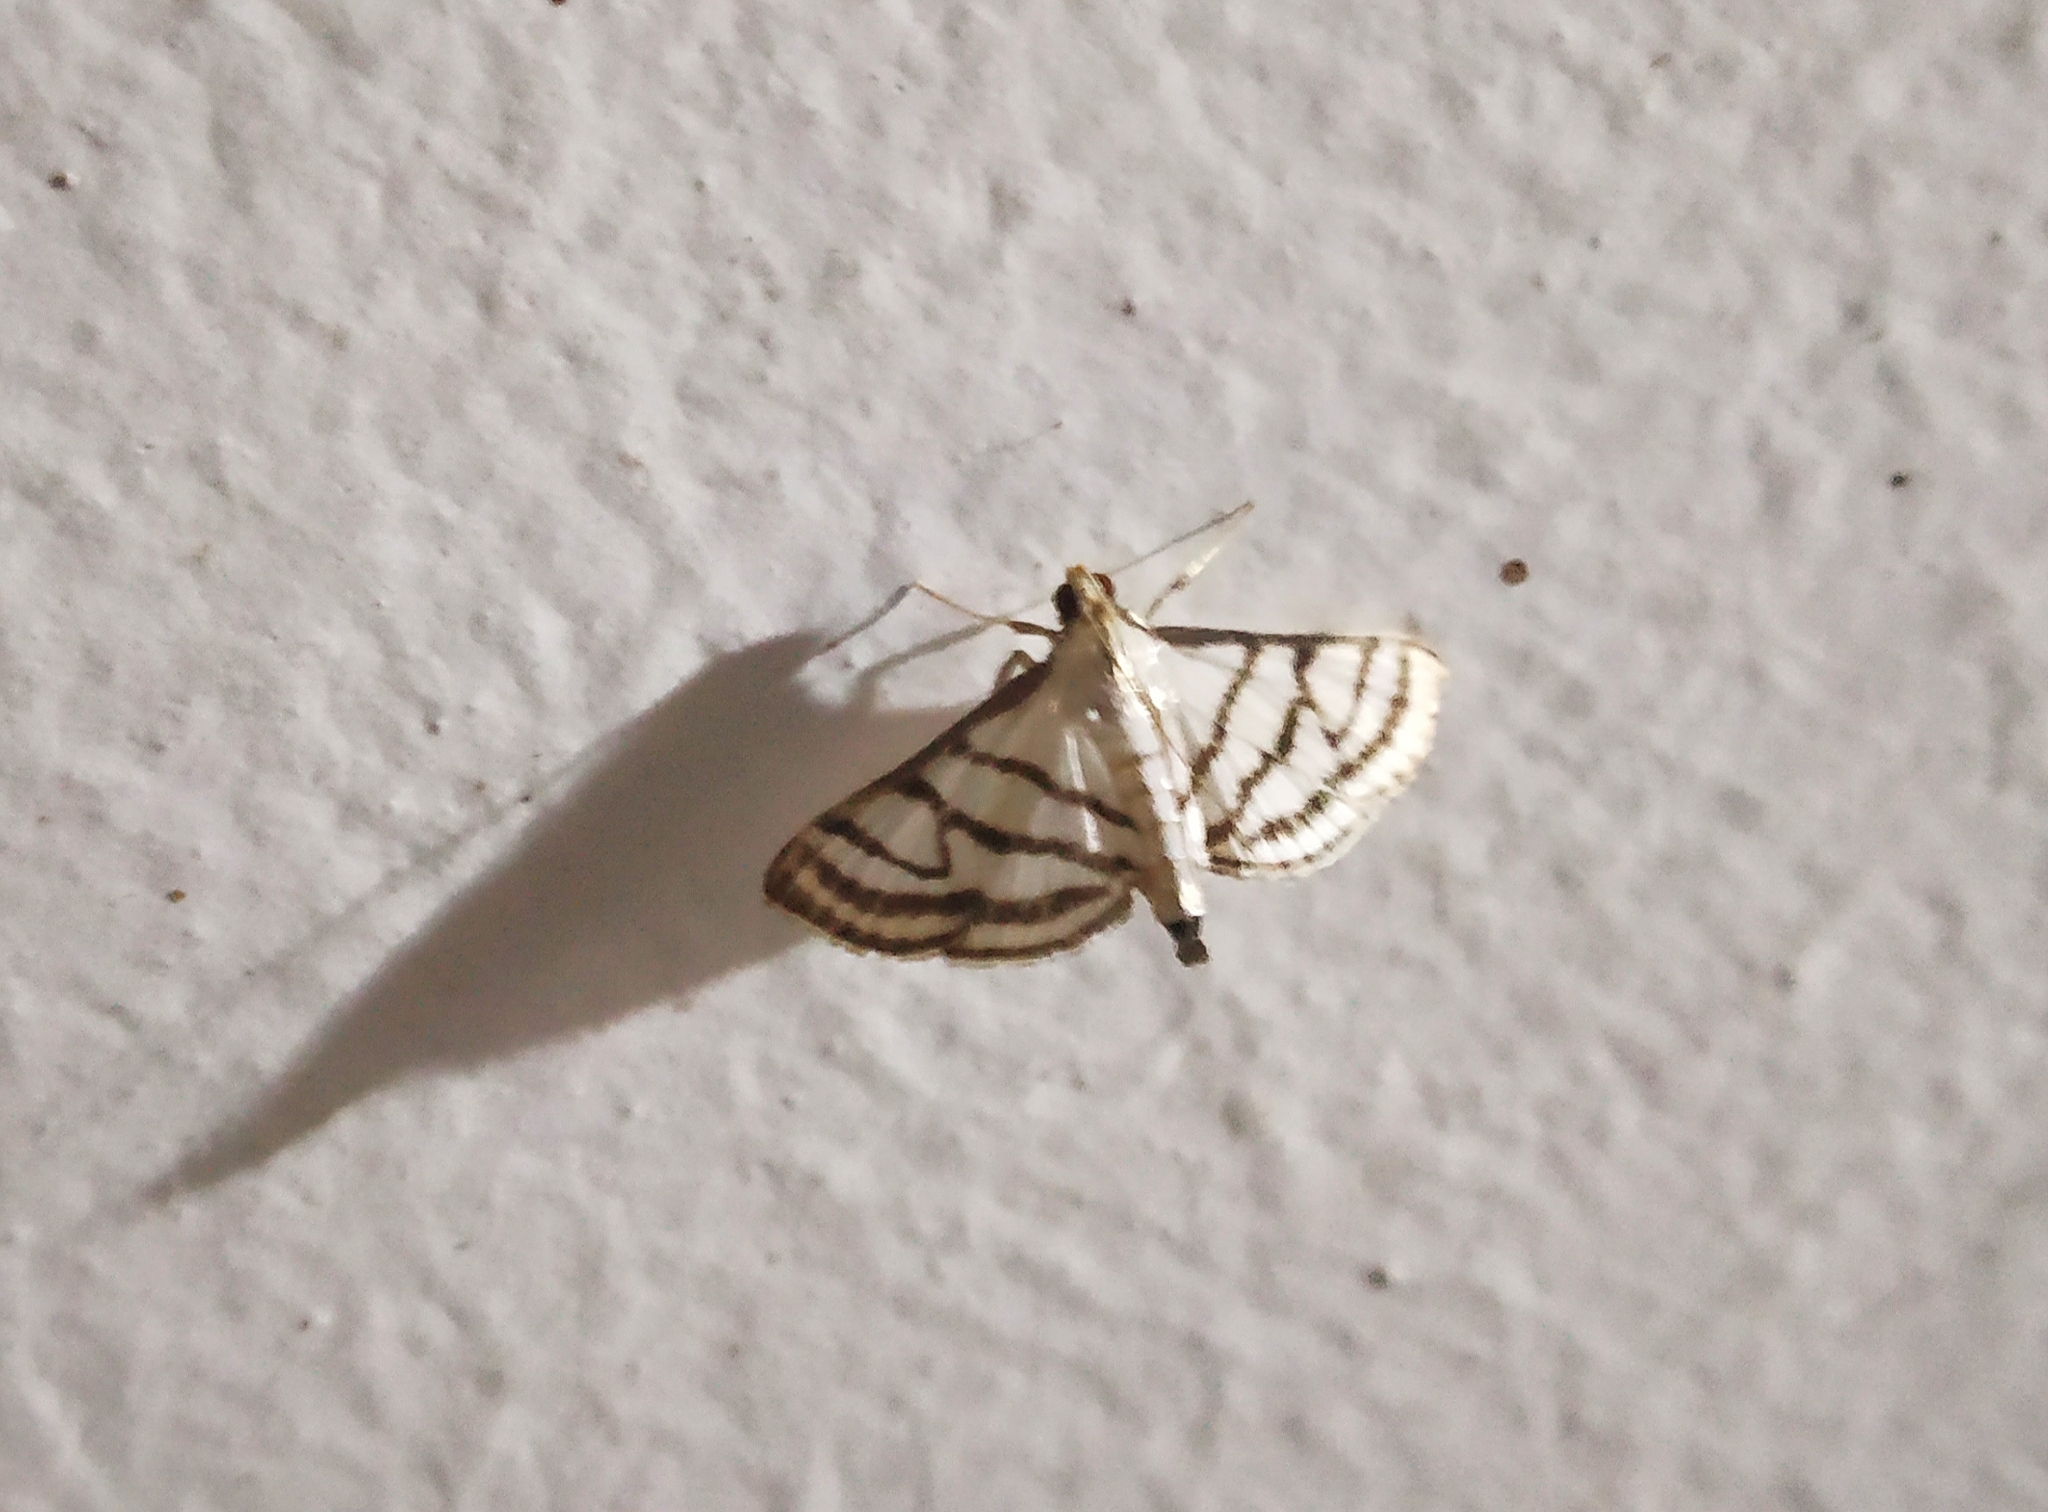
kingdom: Animalia
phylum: Arthropoda
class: Insecta
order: Lepidoptera
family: Crambidae
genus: Ravanoa
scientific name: Ravanoa xiphialis
